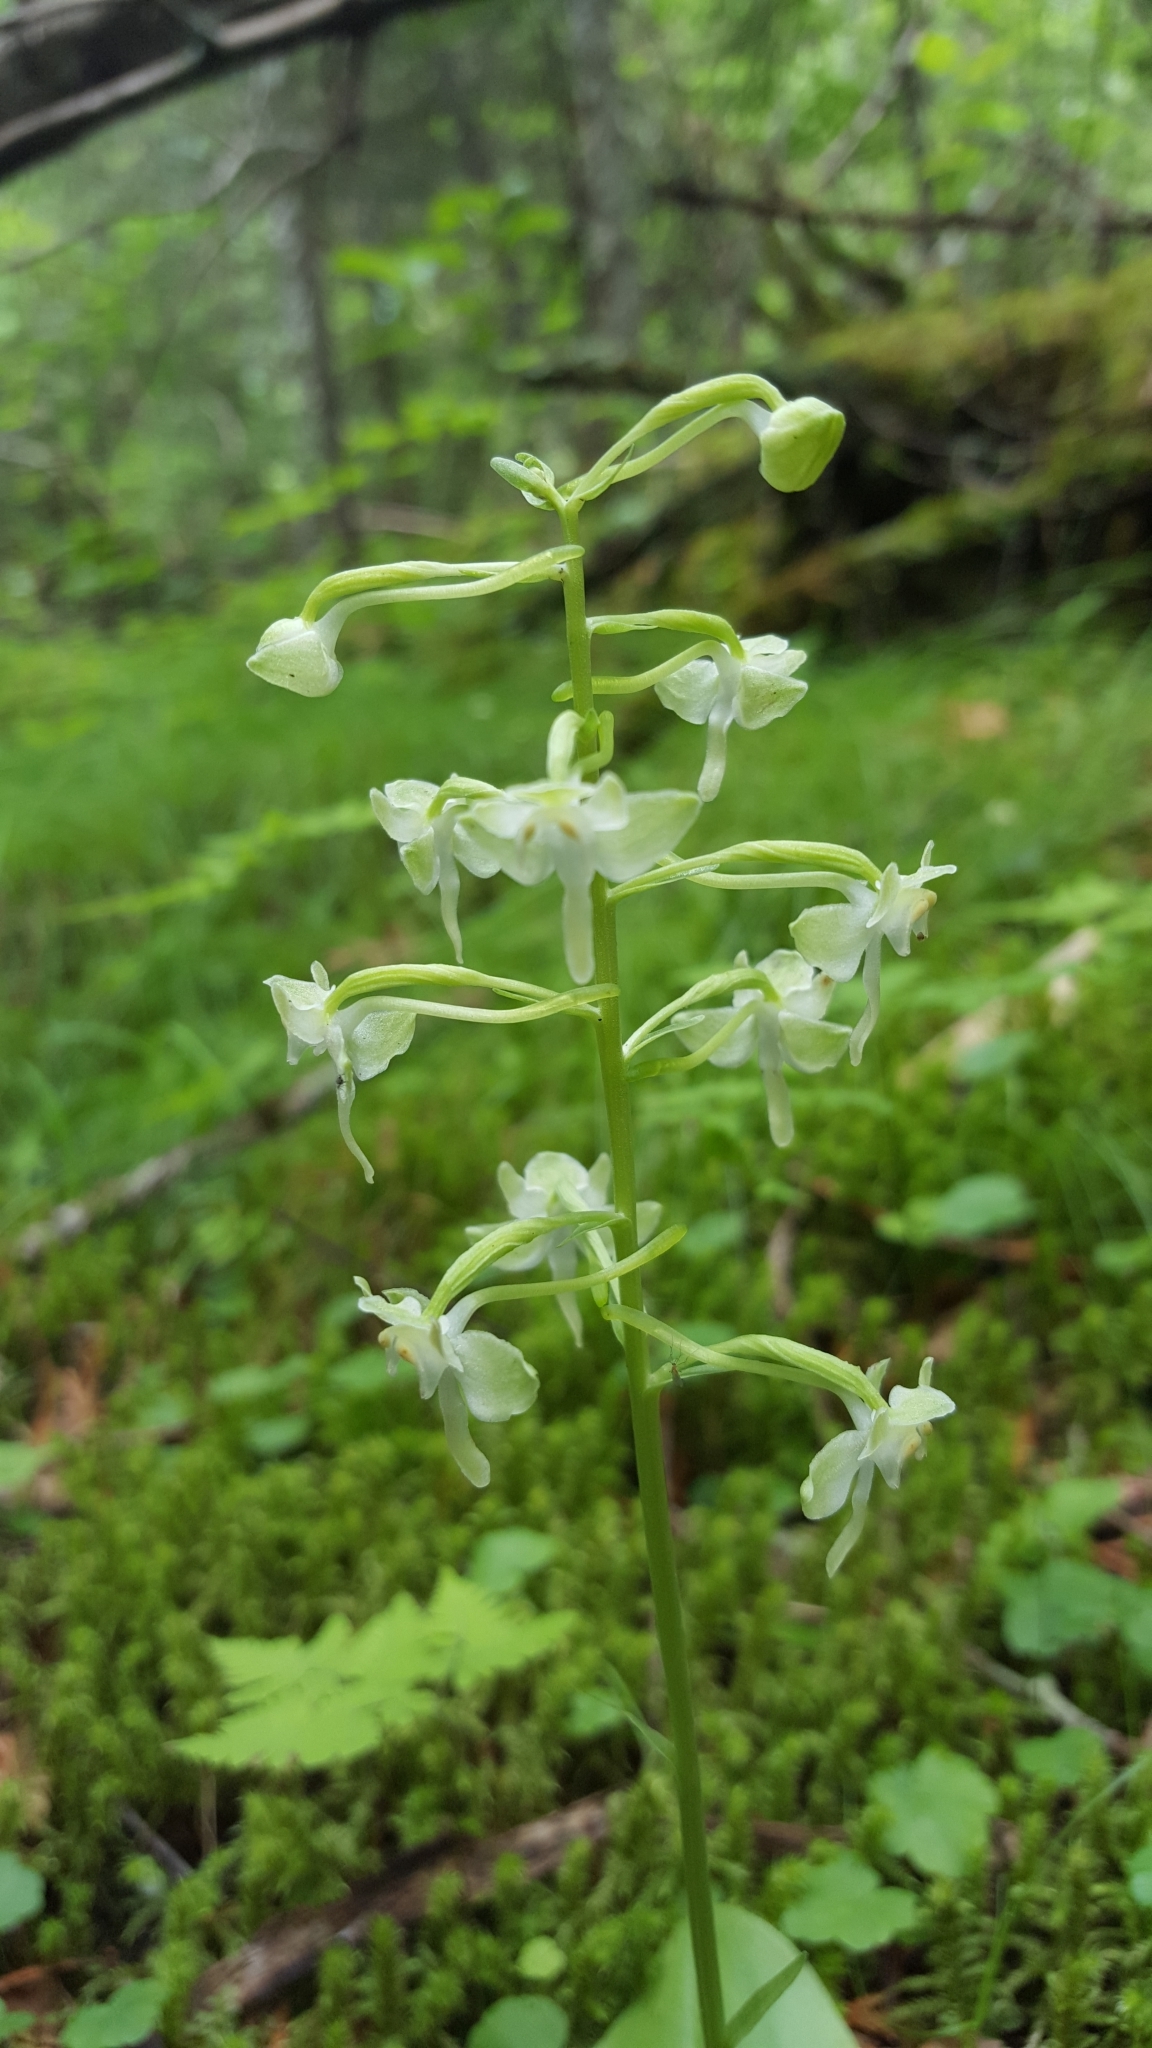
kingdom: Plantae
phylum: Tracheophyta
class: Liliopsida
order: Asparagales
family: Orchidaceae
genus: Platanthera
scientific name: Platanthera orbiculata
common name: Large round-leaved orchid
